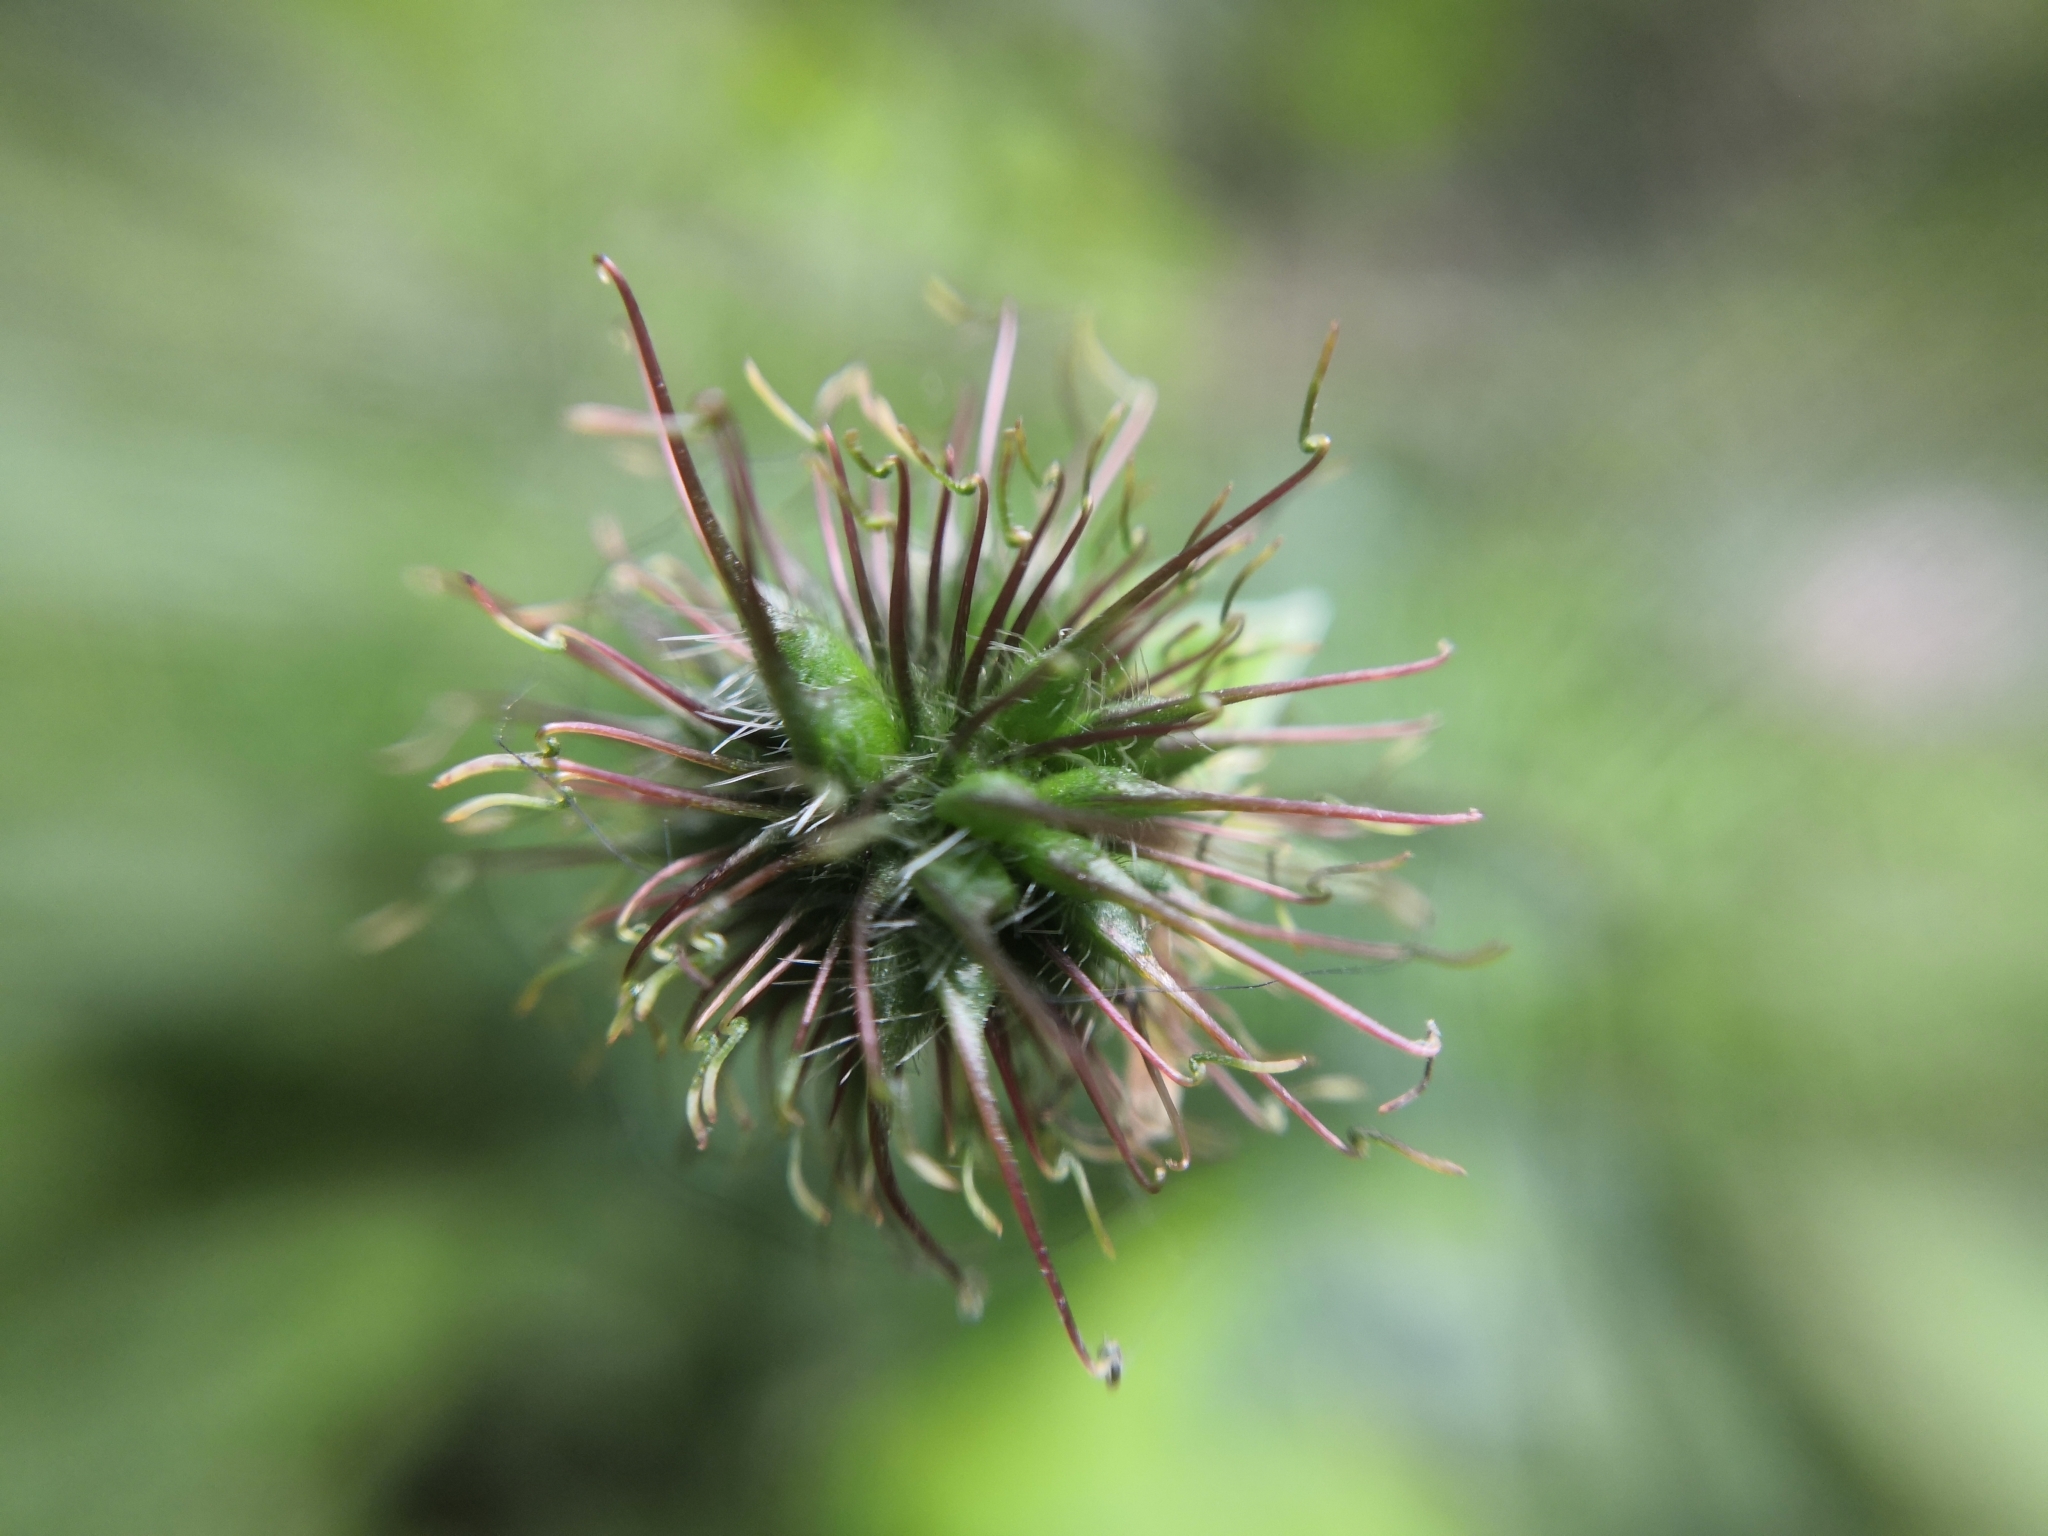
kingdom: Plantae
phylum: Tracheophyta
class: Magnoliopsida
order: Rosales
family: Rosaceae
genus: Geum
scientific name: Geum urbanum
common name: Wood avens
